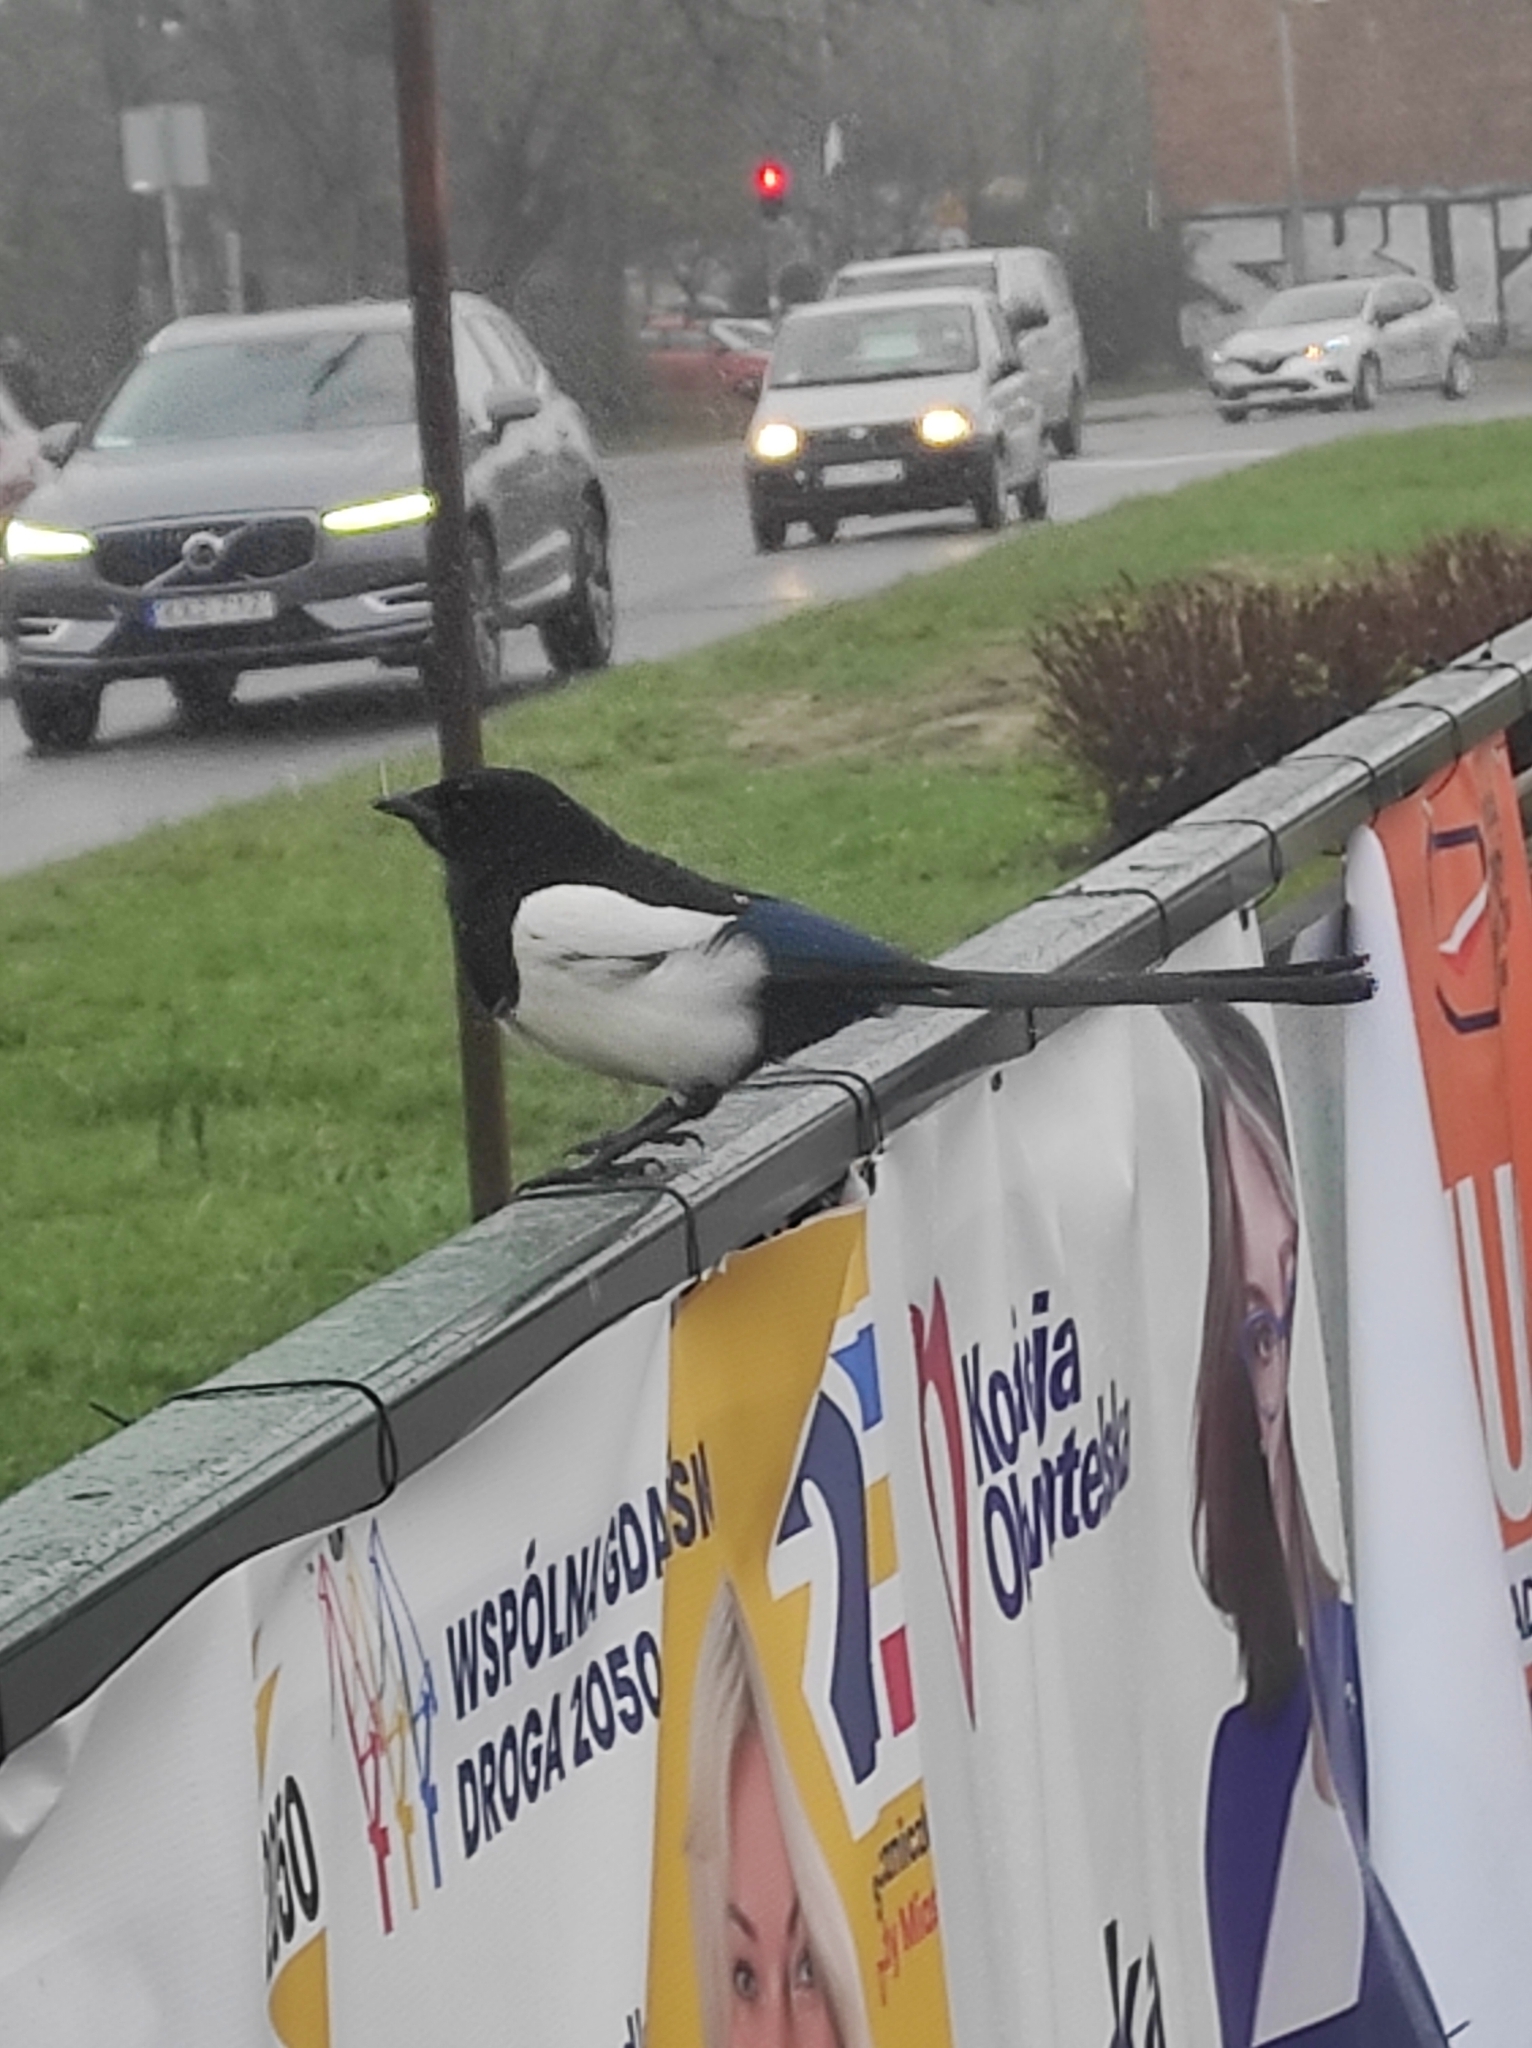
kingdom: Animalia
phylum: Chordata
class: Aves
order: Passeriformes
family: Corvidae
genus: Pica
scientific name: Pica pica
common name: Eurasian magpie
